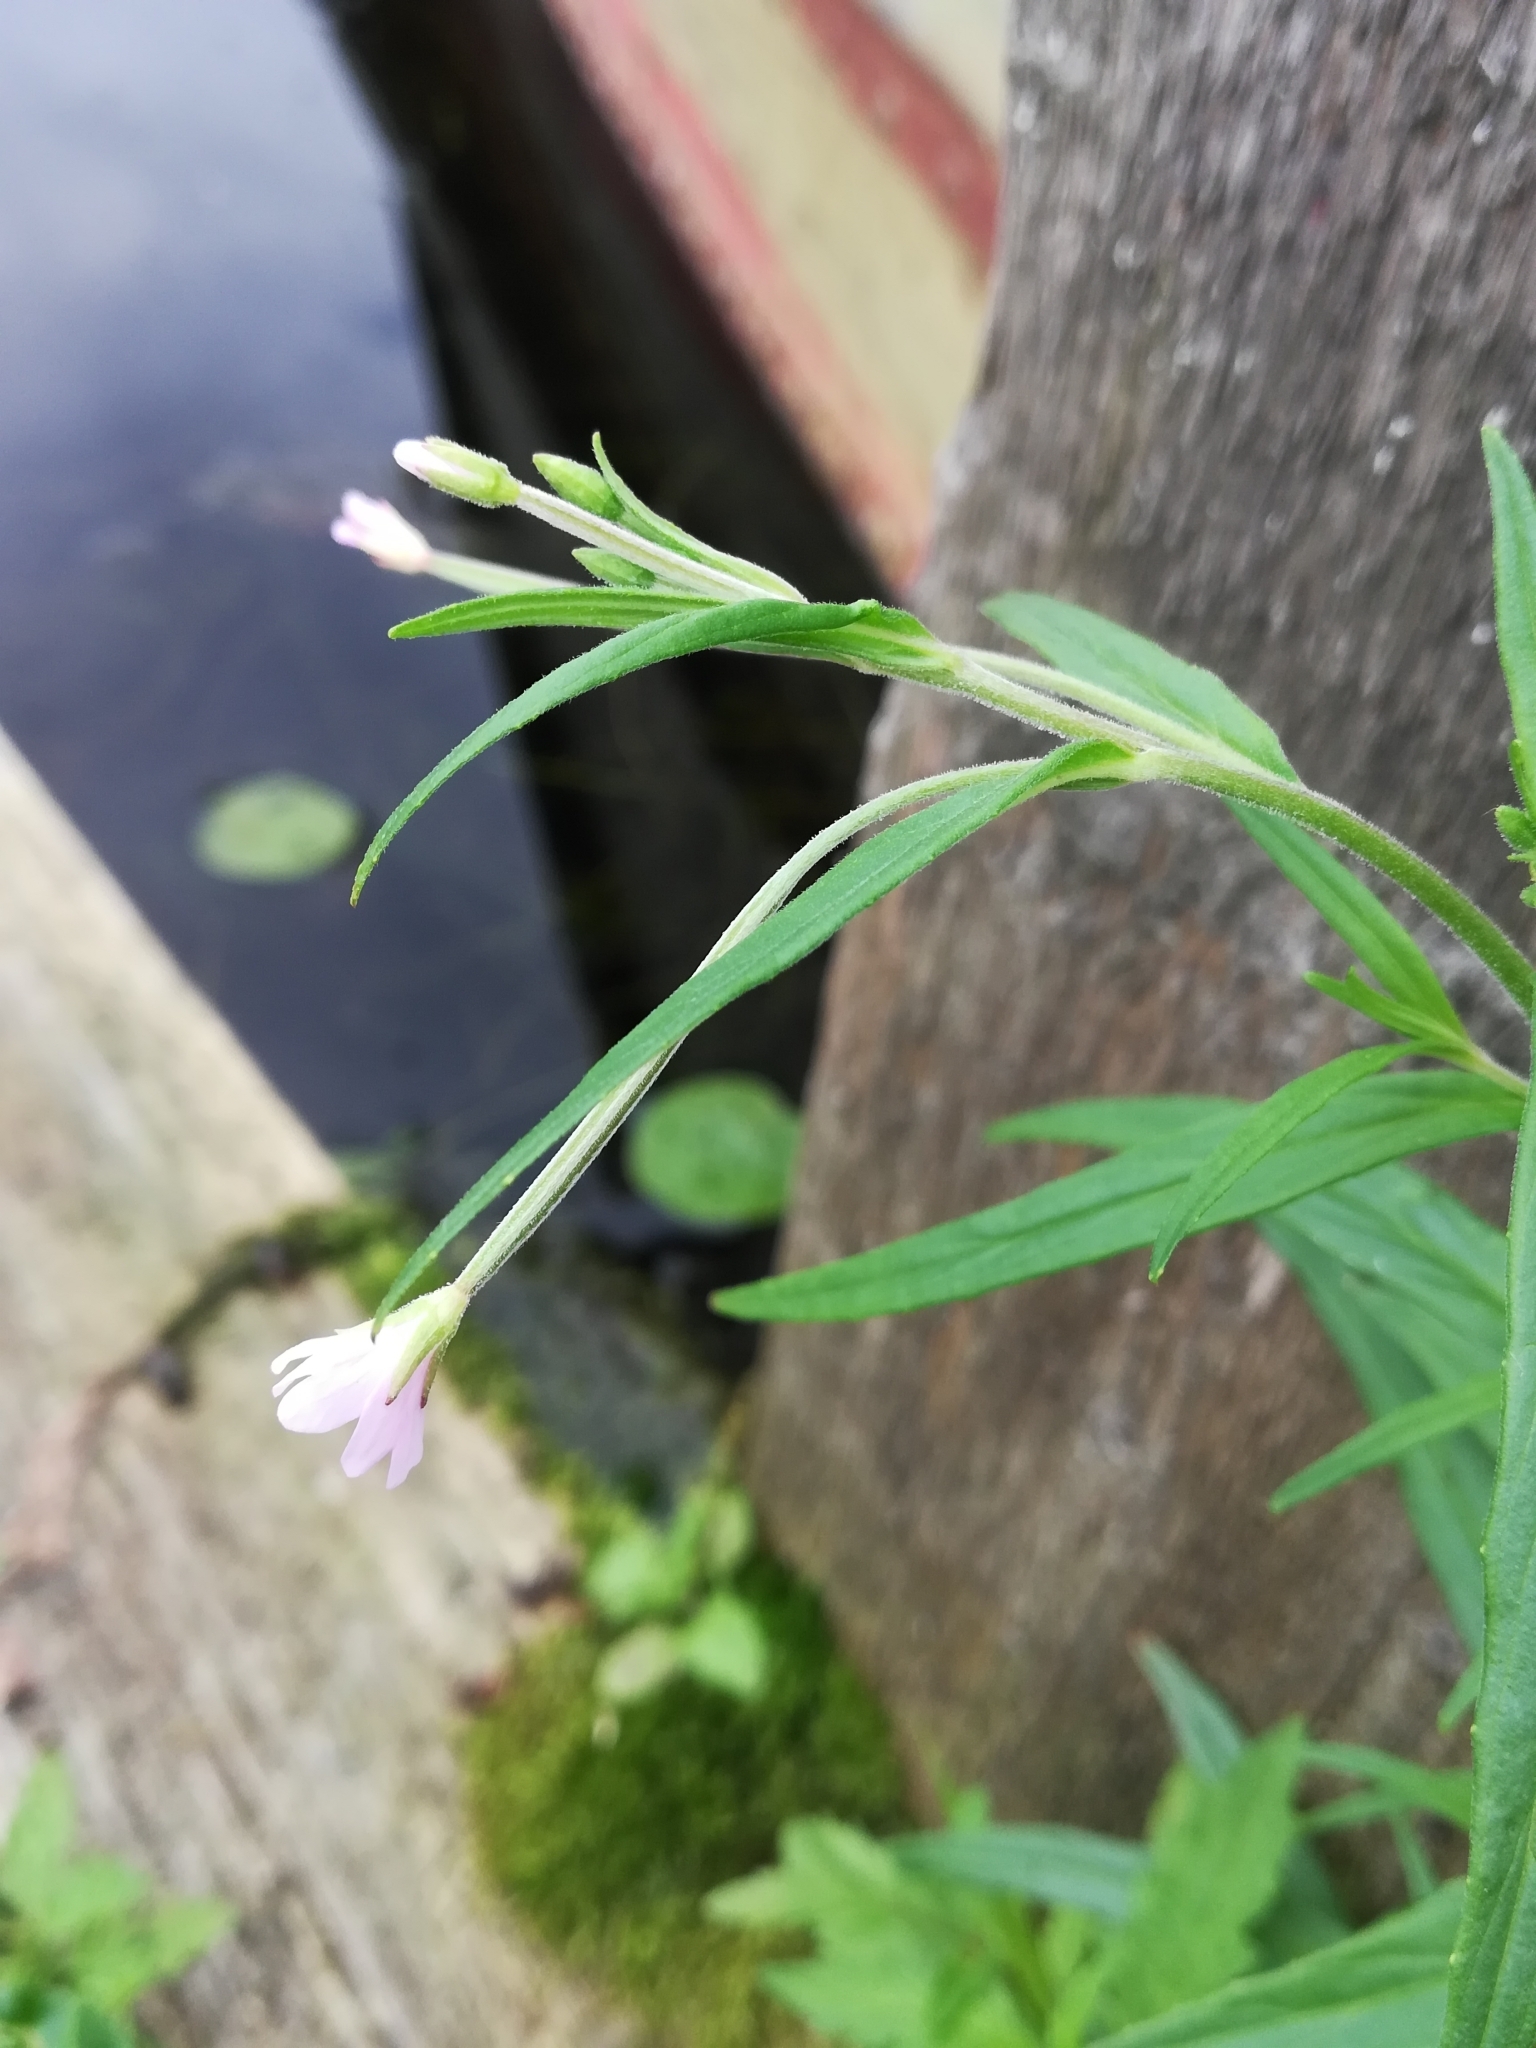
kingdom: Plantae
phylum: Tracheophyta
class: Magnoliopsida
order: Myrtales
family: Onagraceae
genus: Epilobium
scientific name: Epilobium palustre
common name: Marsh willowherb
